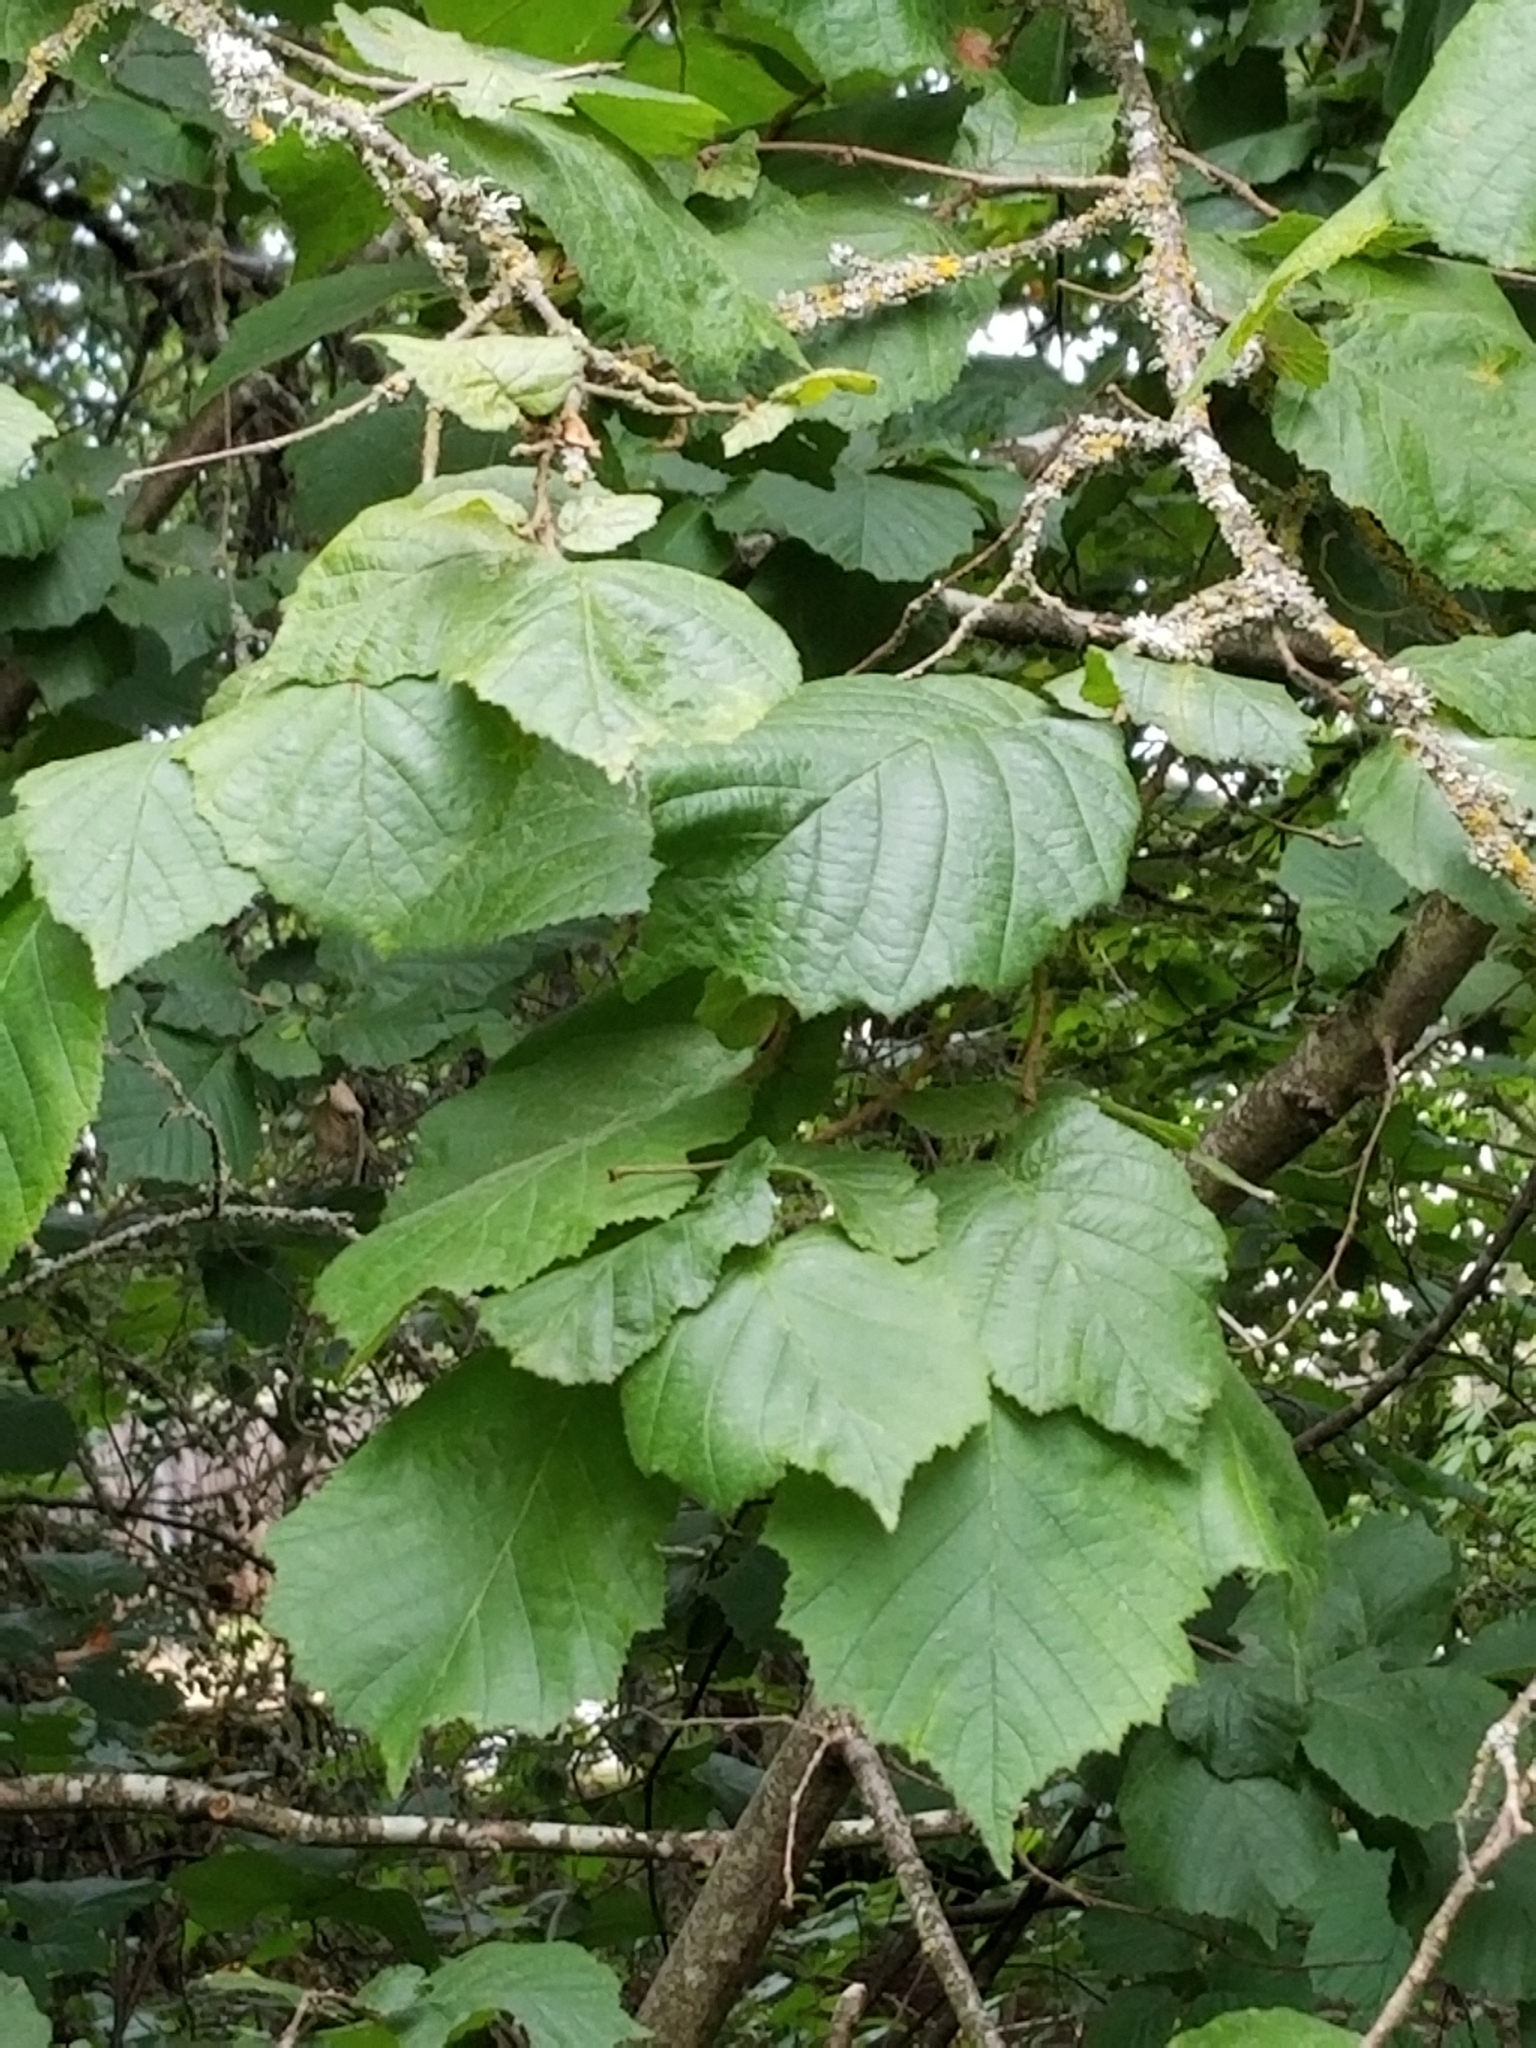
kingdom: Plantae
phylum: Tracheophyta
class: Magnoliopsida
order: Fagales
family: Betulaceae
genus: Corylus
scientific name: Corylus avellana
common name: European hazel
